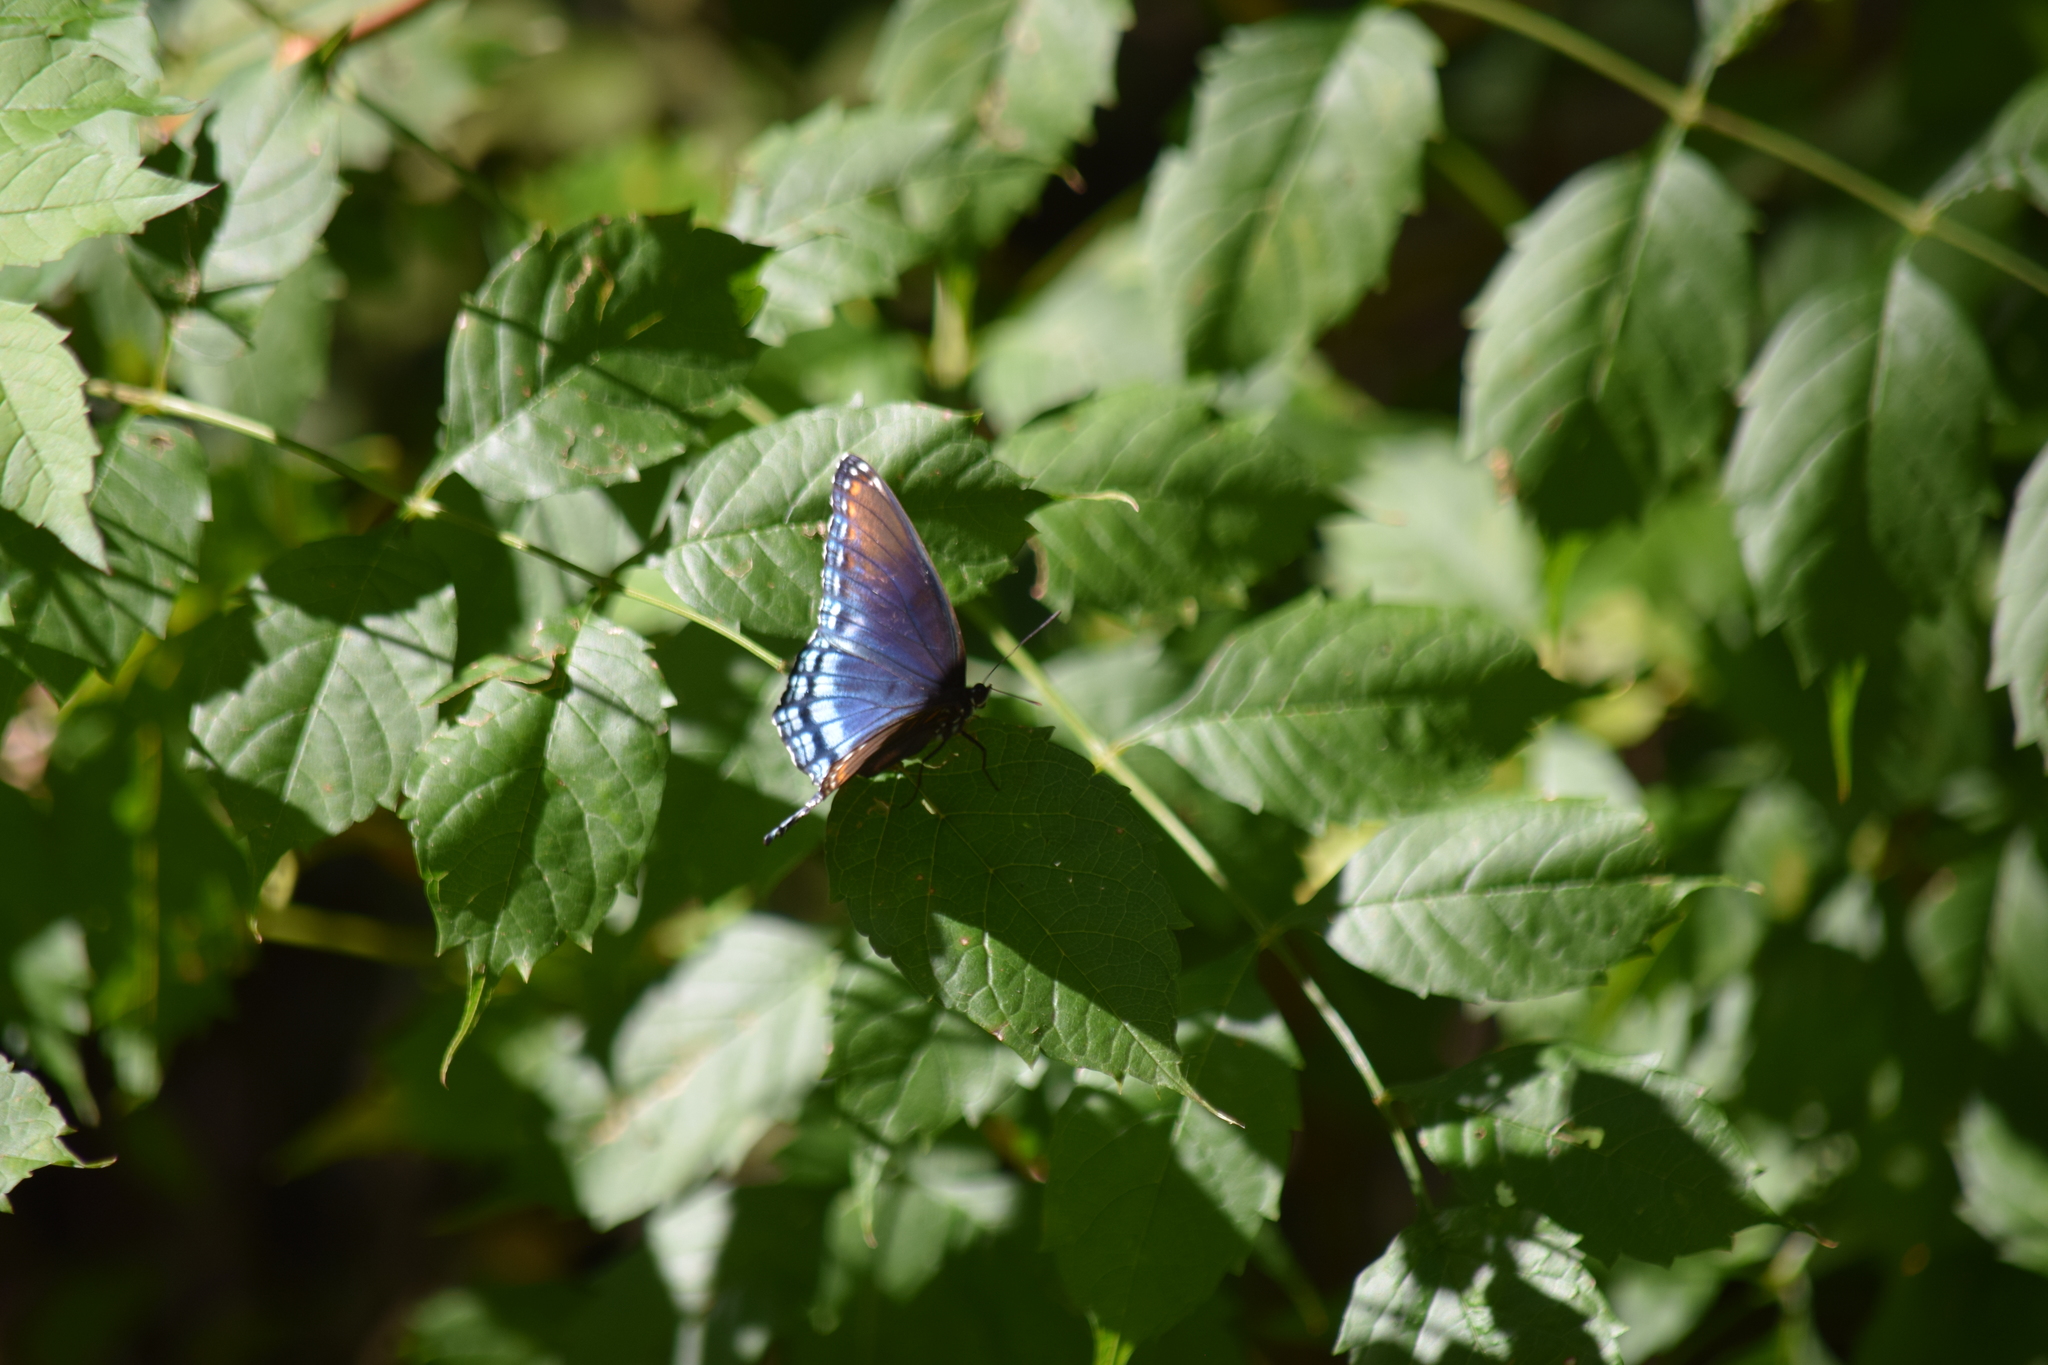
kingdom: Animalia
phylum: Arthropoda
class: Insecta
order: Lepidoptera
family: Nymphalidae
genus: Limenitis
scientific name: Limenitis arthemis
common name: Red-spotted admiral
